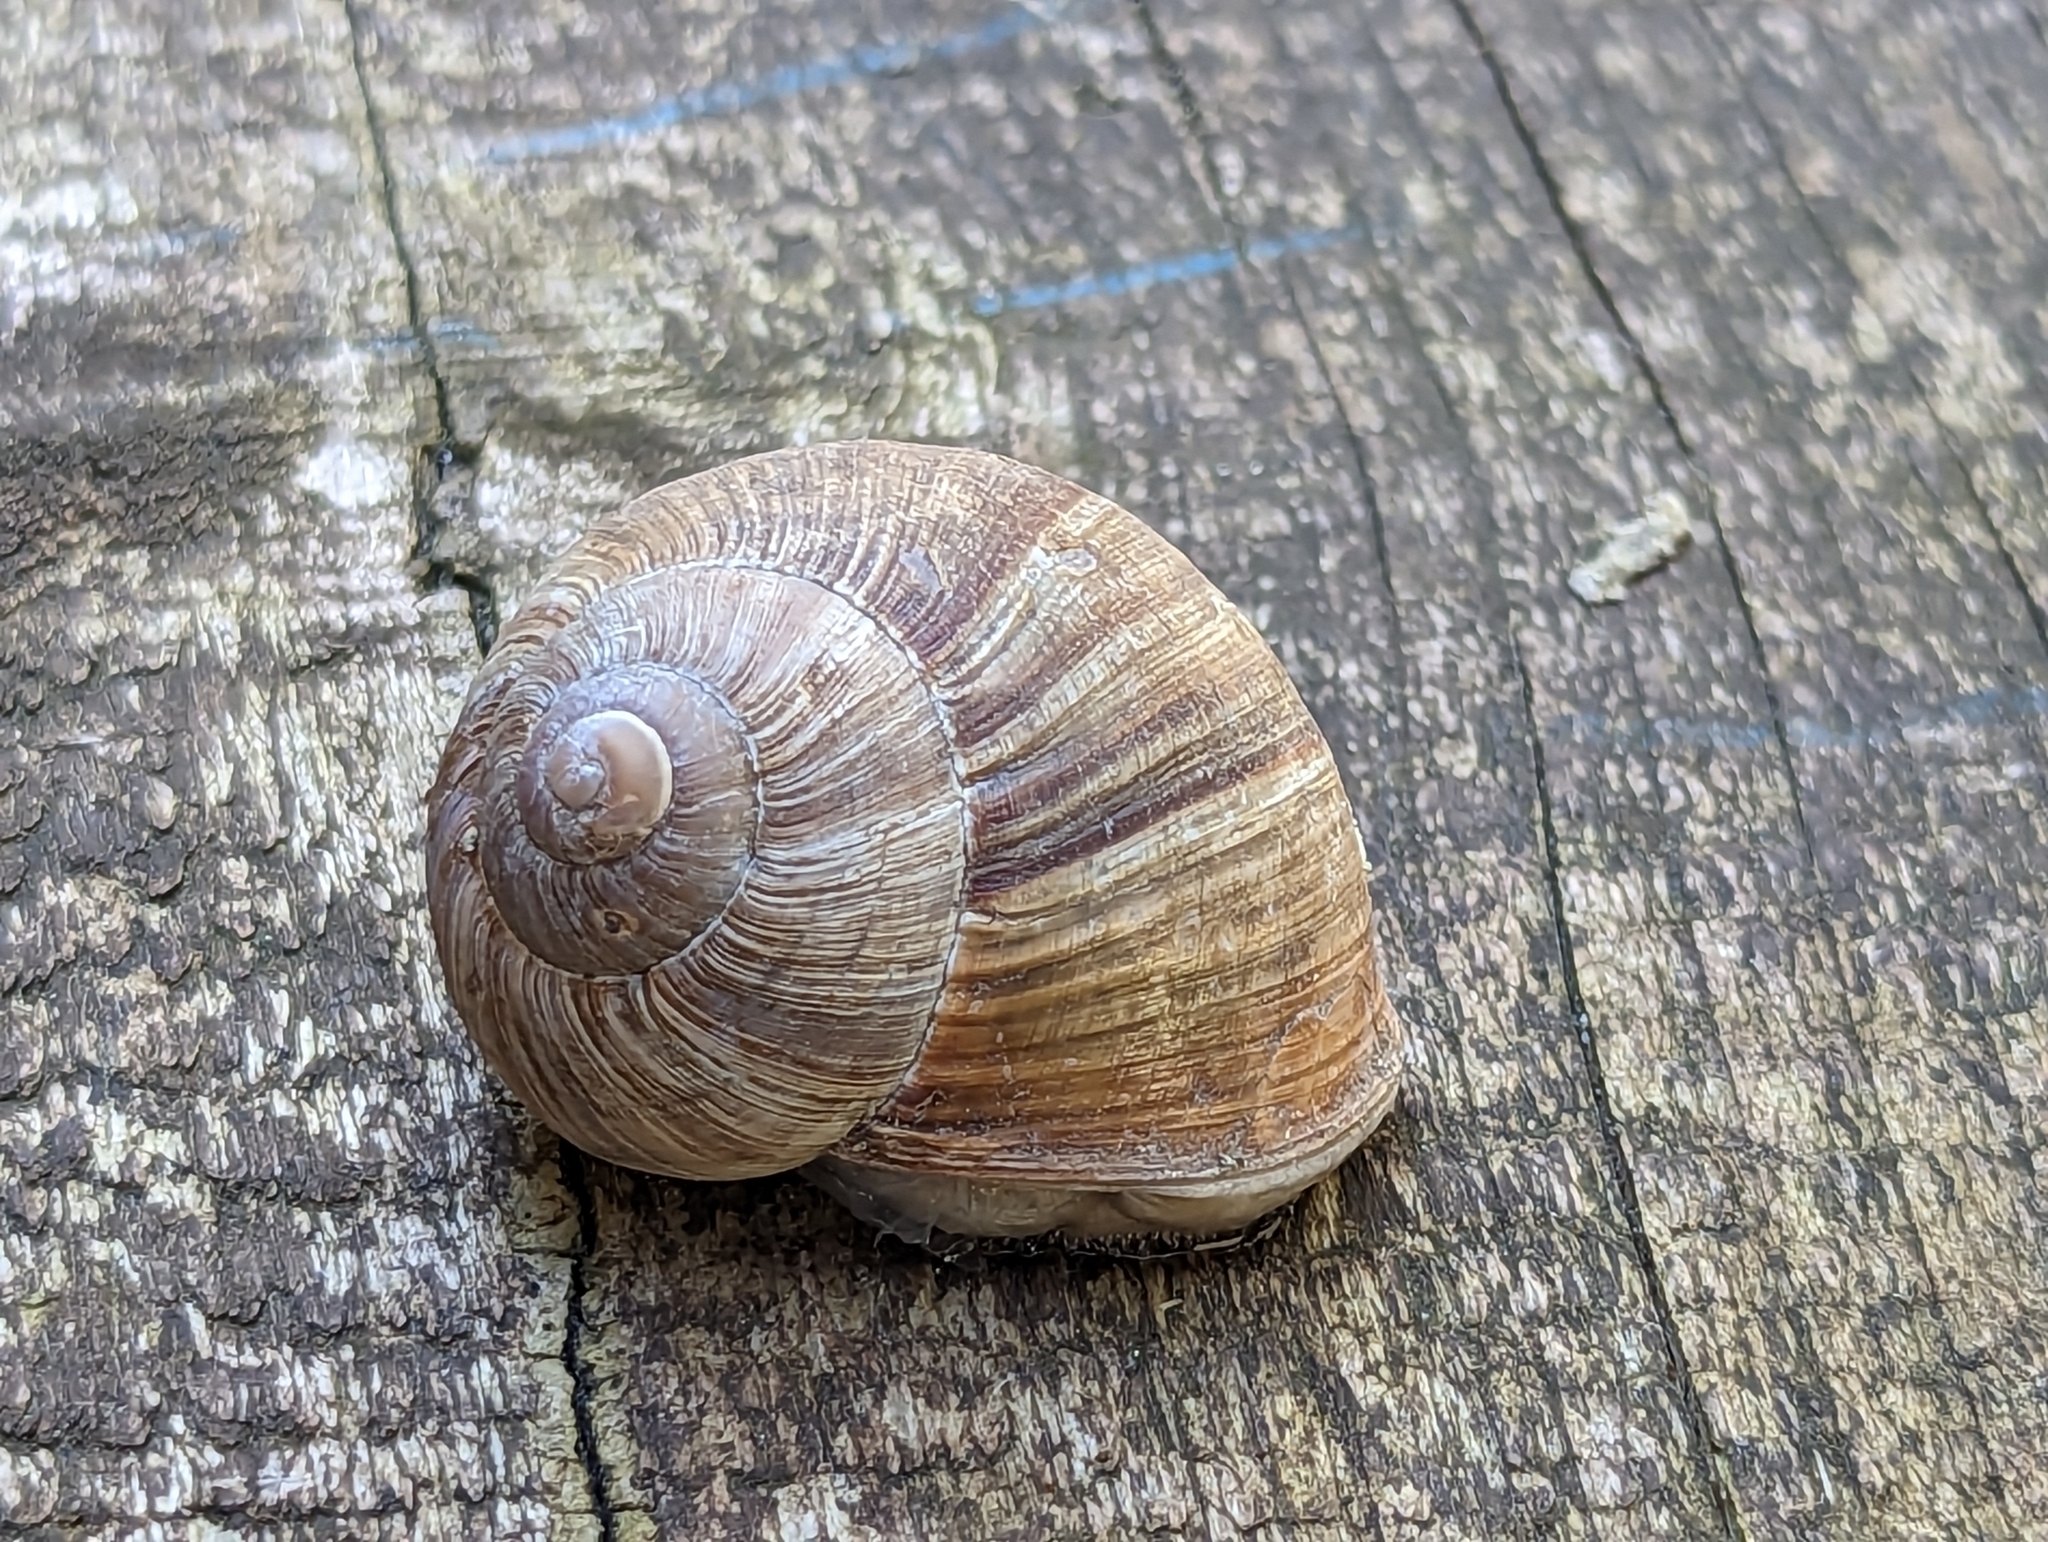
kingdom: Animalia
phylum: Mollusca
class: Gastropoda
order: Stylommatophora
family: Helicidae
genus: Helix
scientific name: Helix pomatia
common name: Roman snail
